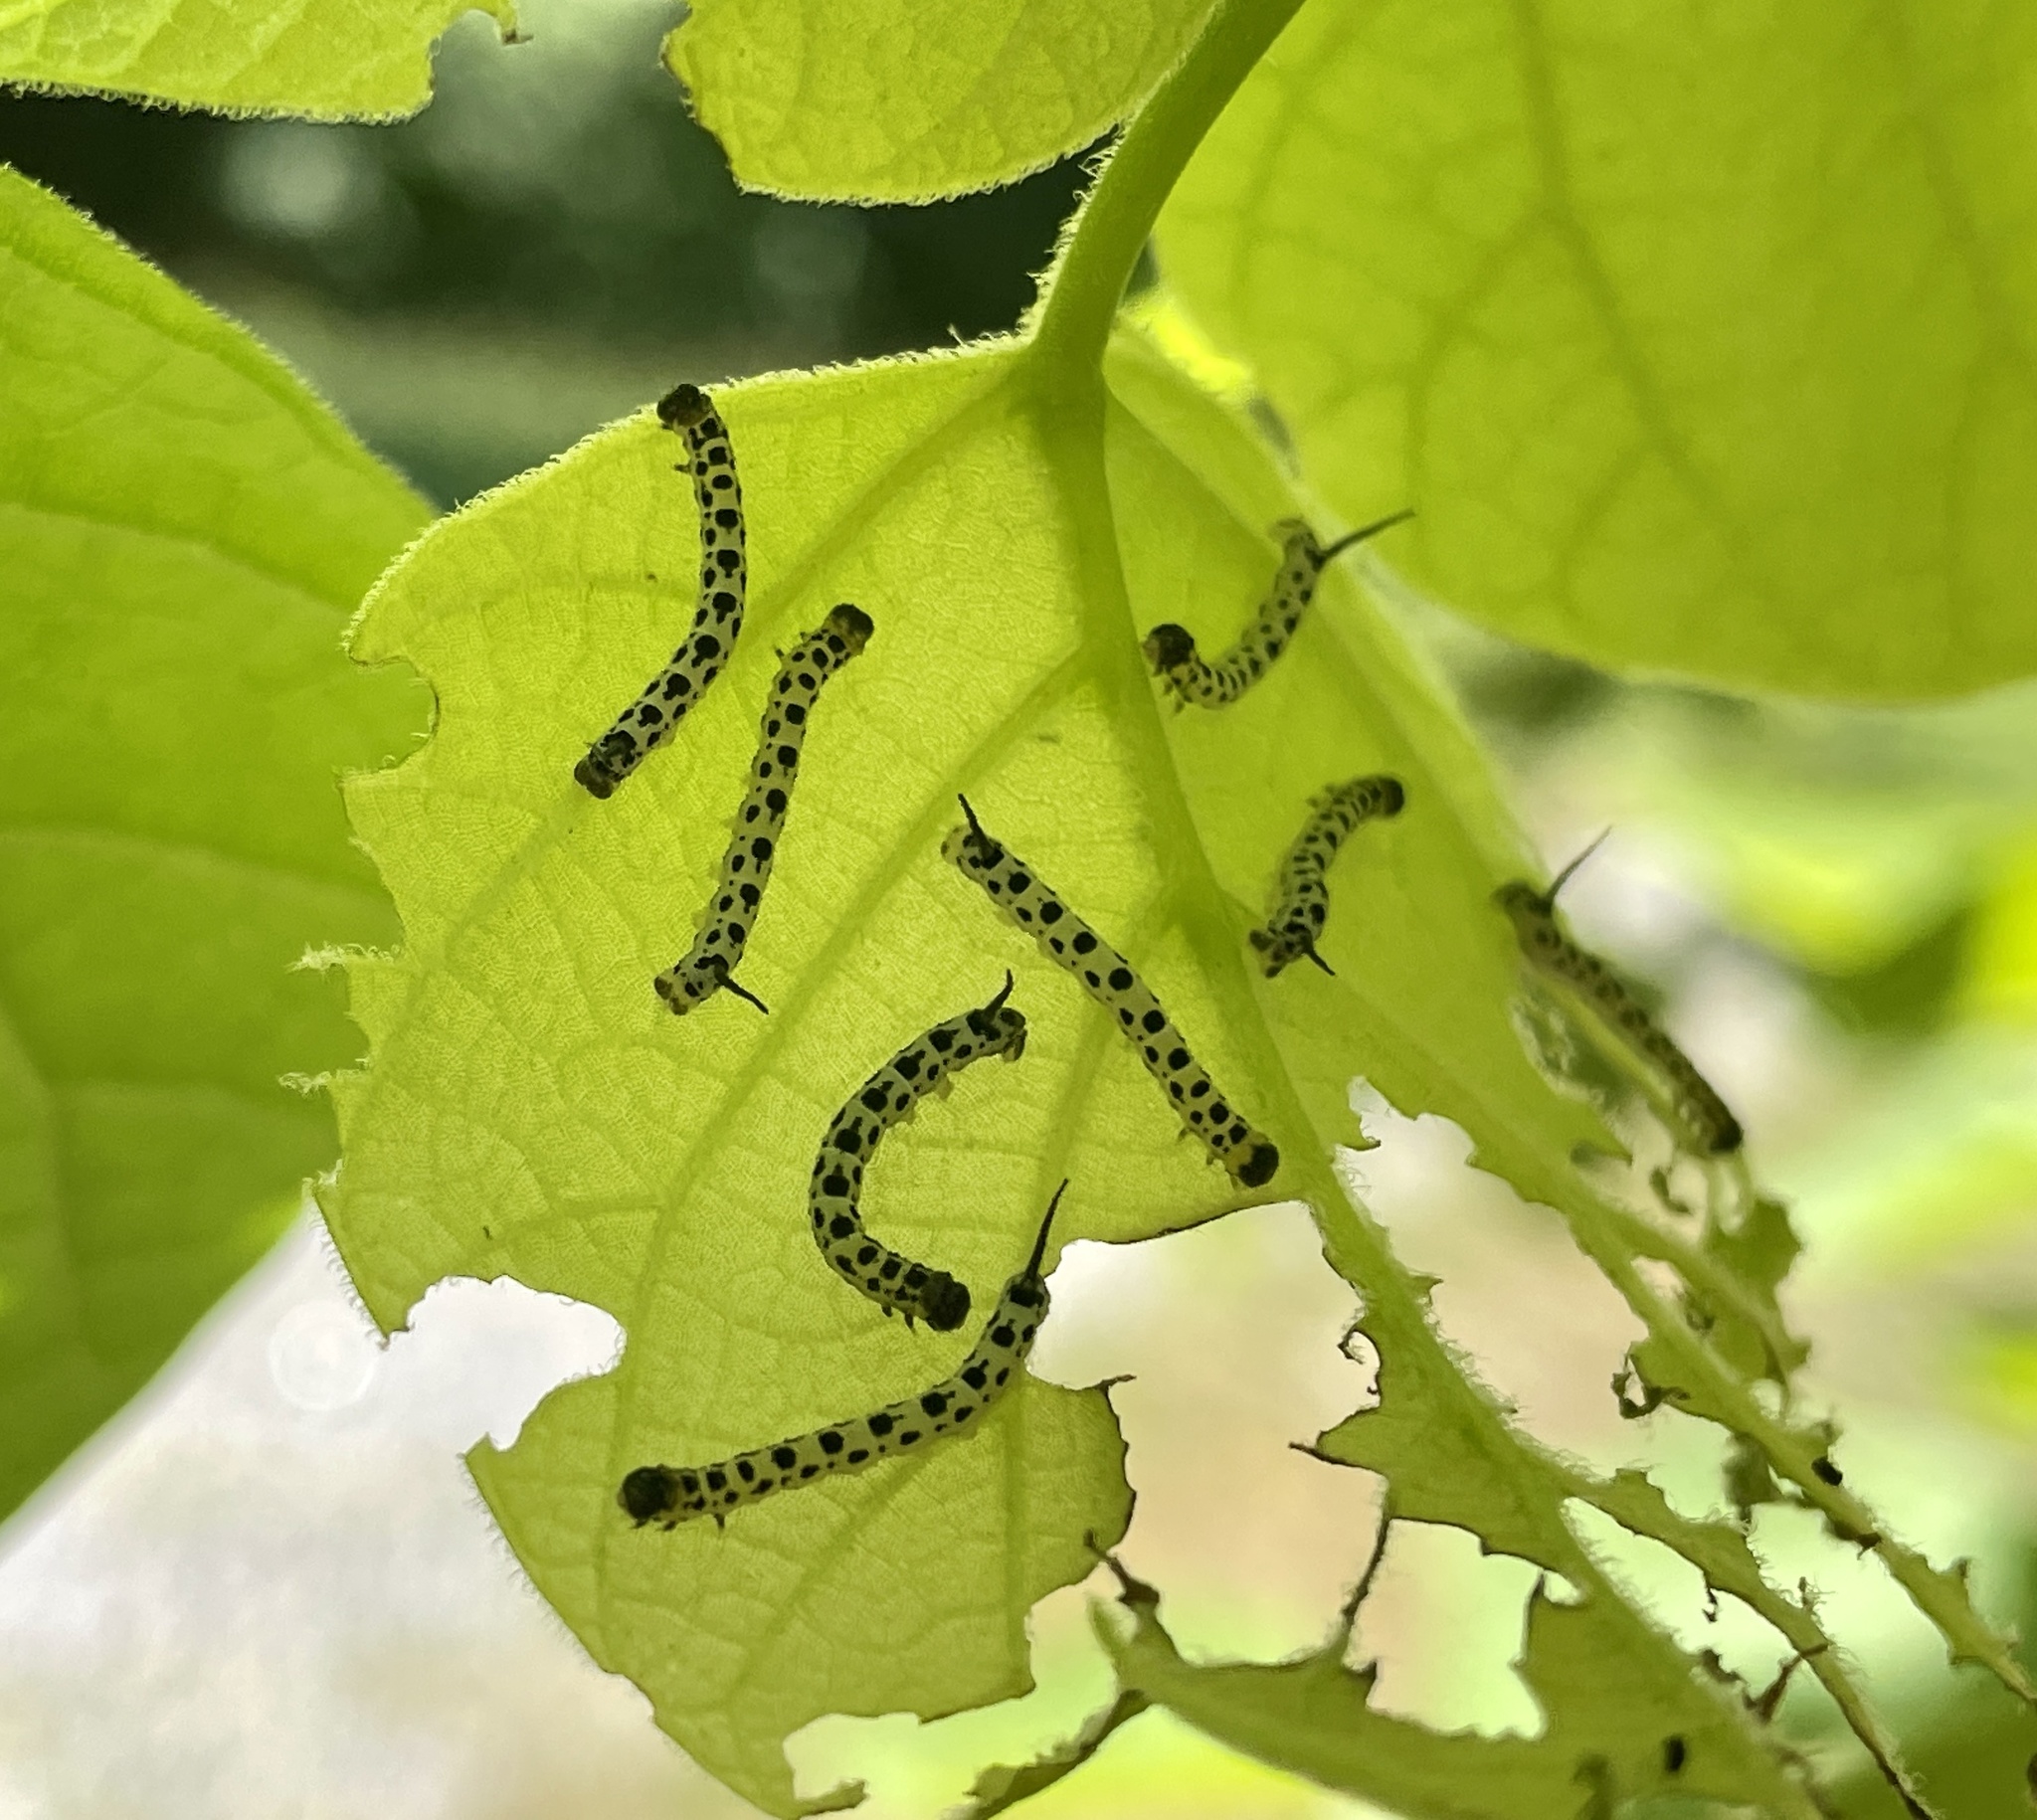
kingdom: Animalia
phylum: Arthropoda
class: Insecta
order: Lepidoptera
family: Sphingidae
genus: Ceratomia
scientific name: Ceratomia catalpae
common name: Catalpa hornworm
